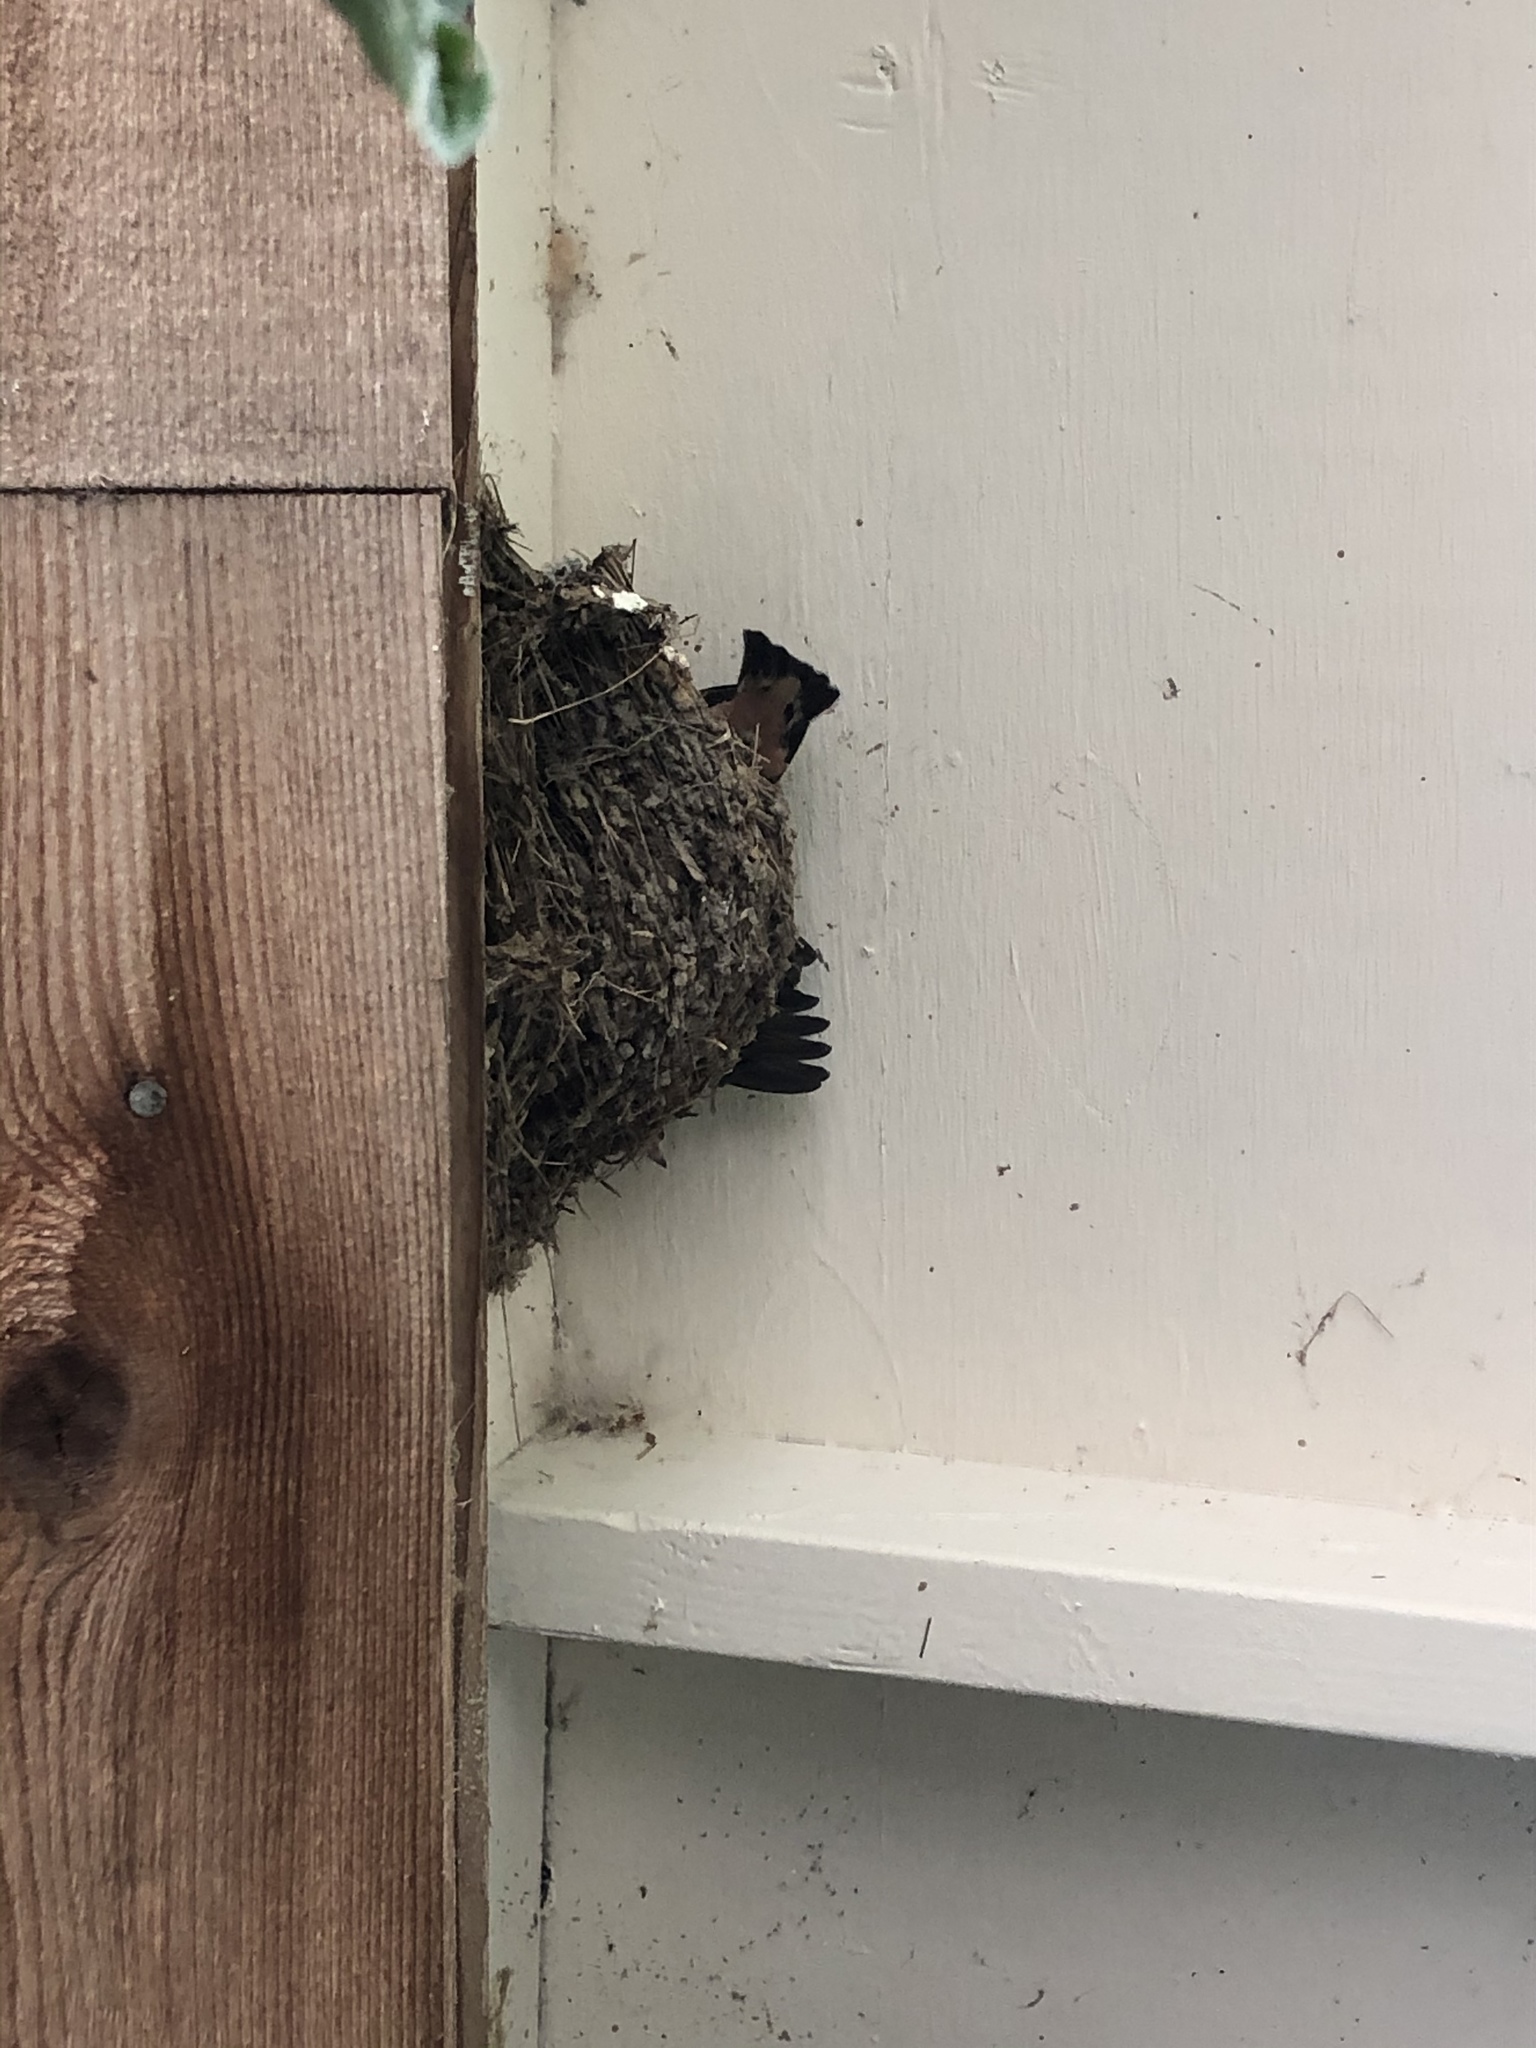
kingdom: Animalia
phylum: Chordata
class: Aves
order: Passeriformes
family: Hirundinidae
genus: Hirundo
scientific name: Hirundo rustica
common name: Barn swallow
